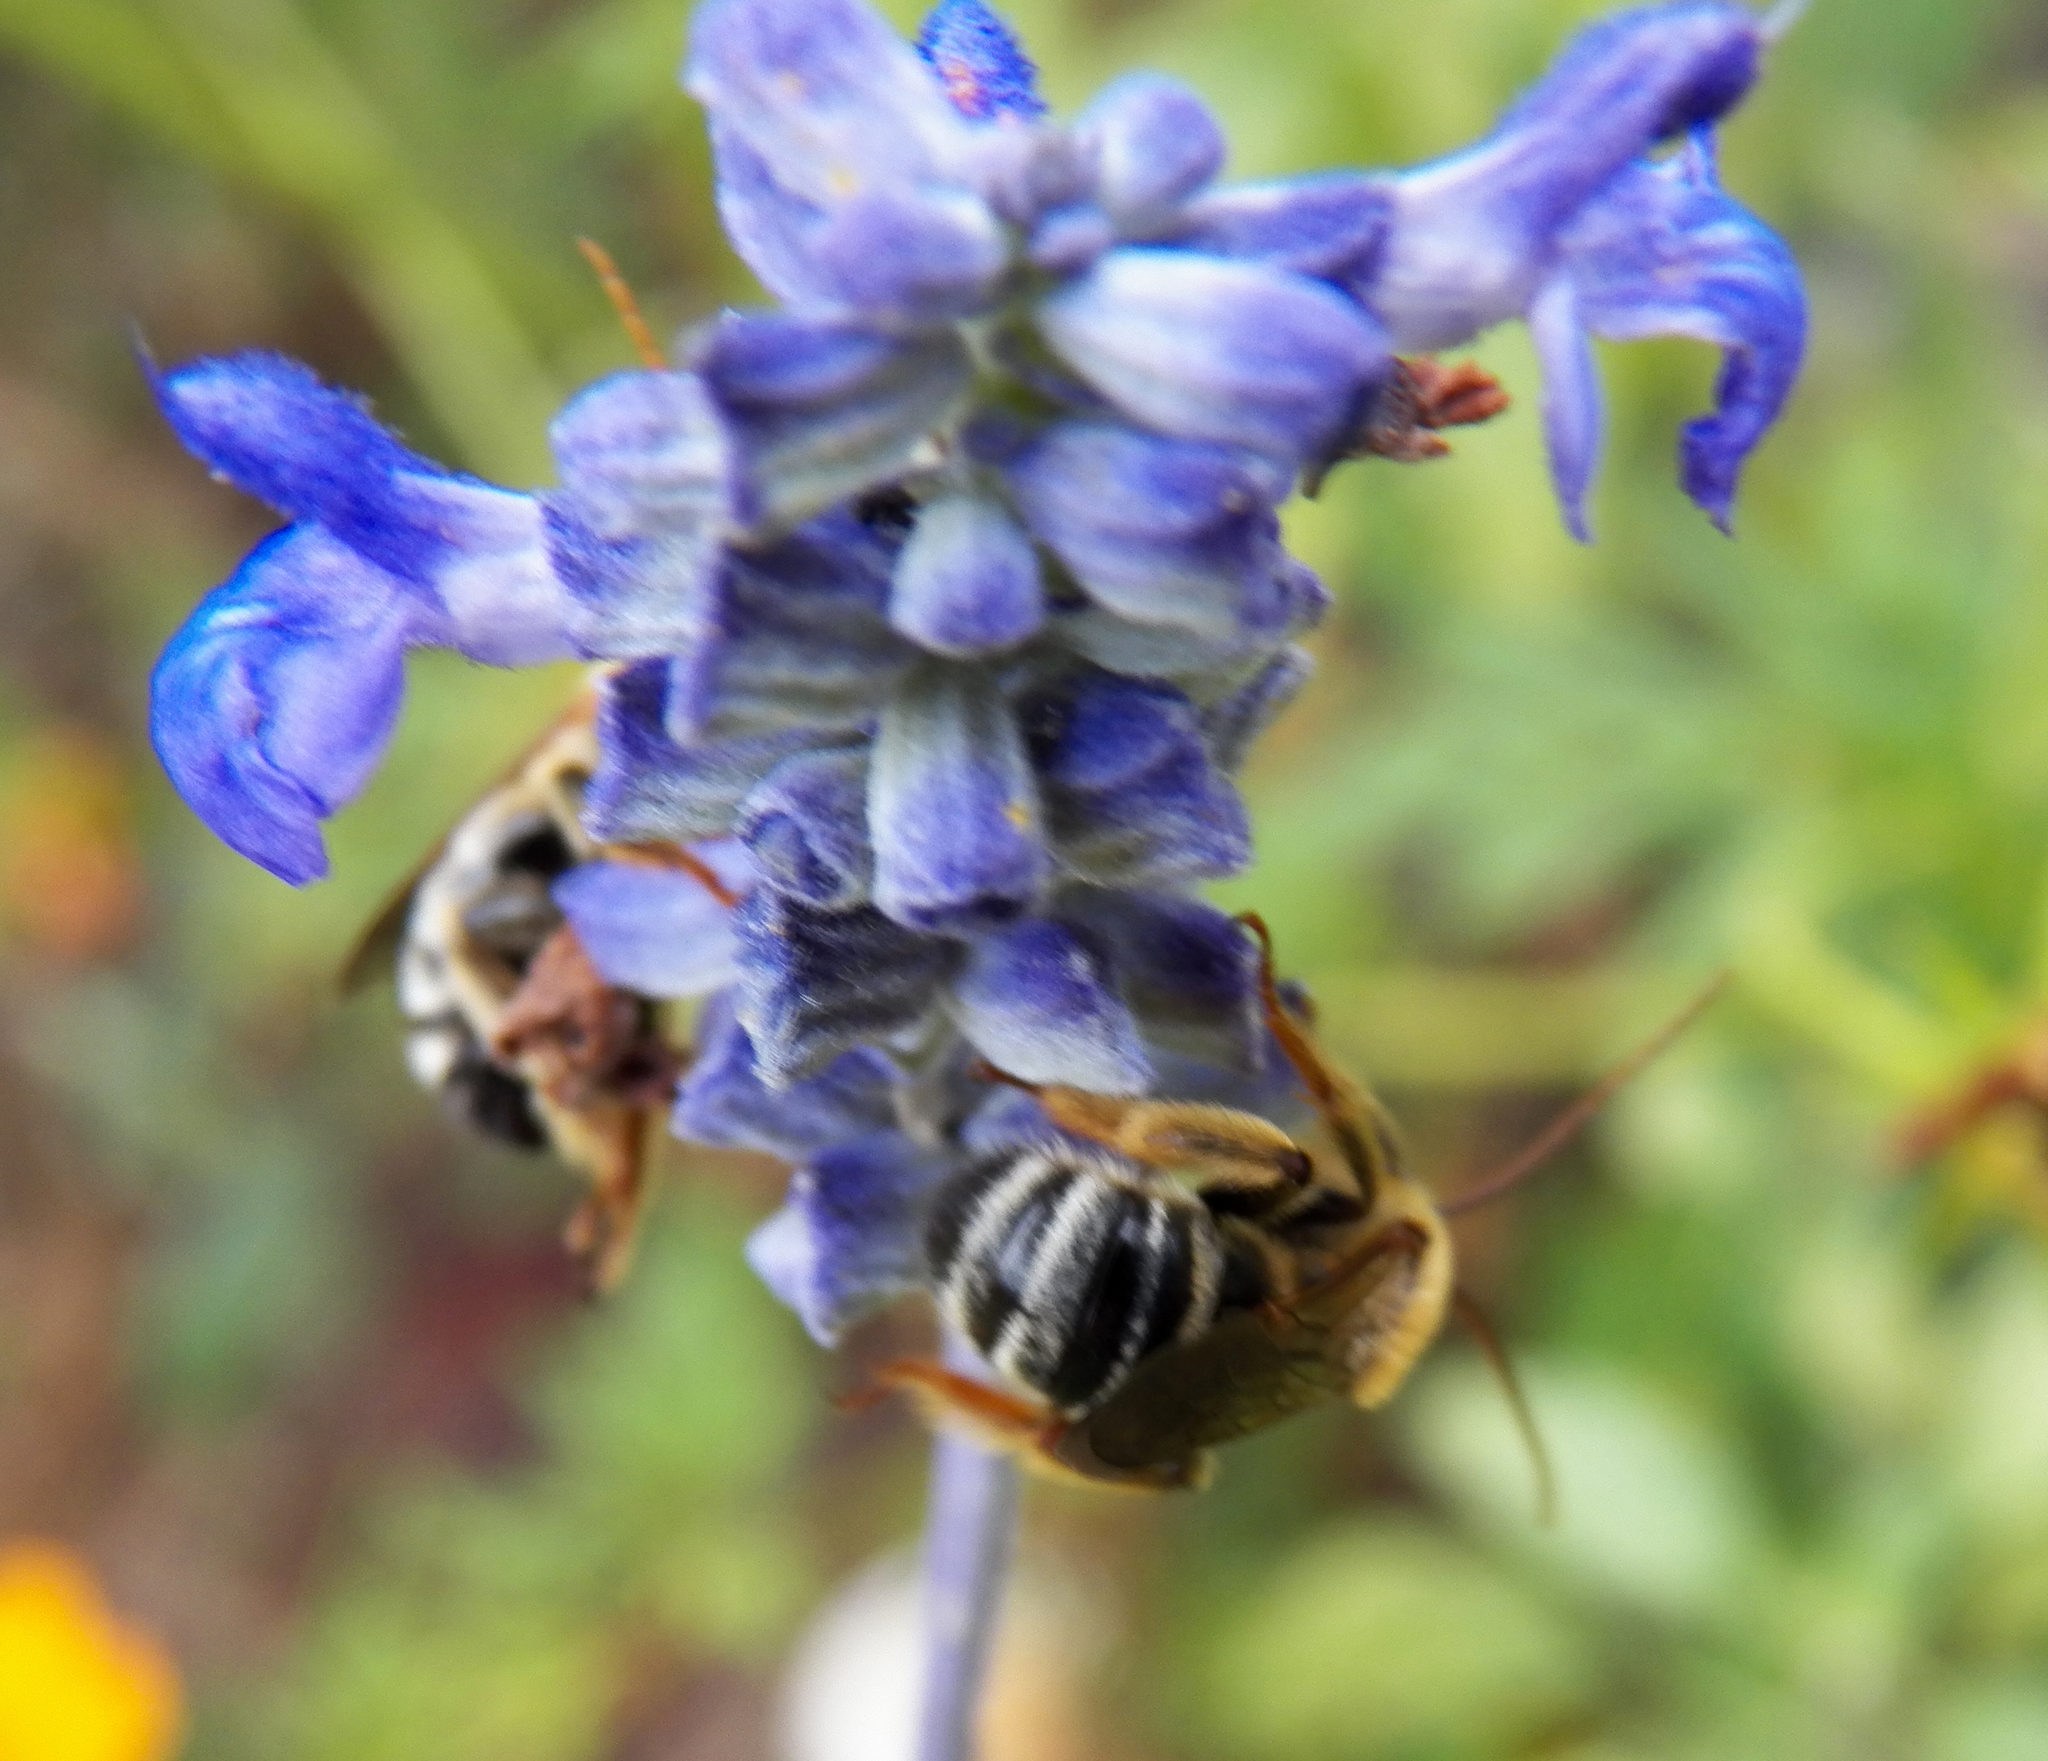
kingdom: Animalia
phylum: Arthropoda
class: Insecta
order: Hymenoptera
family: Apidae
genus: Melissodes
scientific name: Melissodes comptoides
